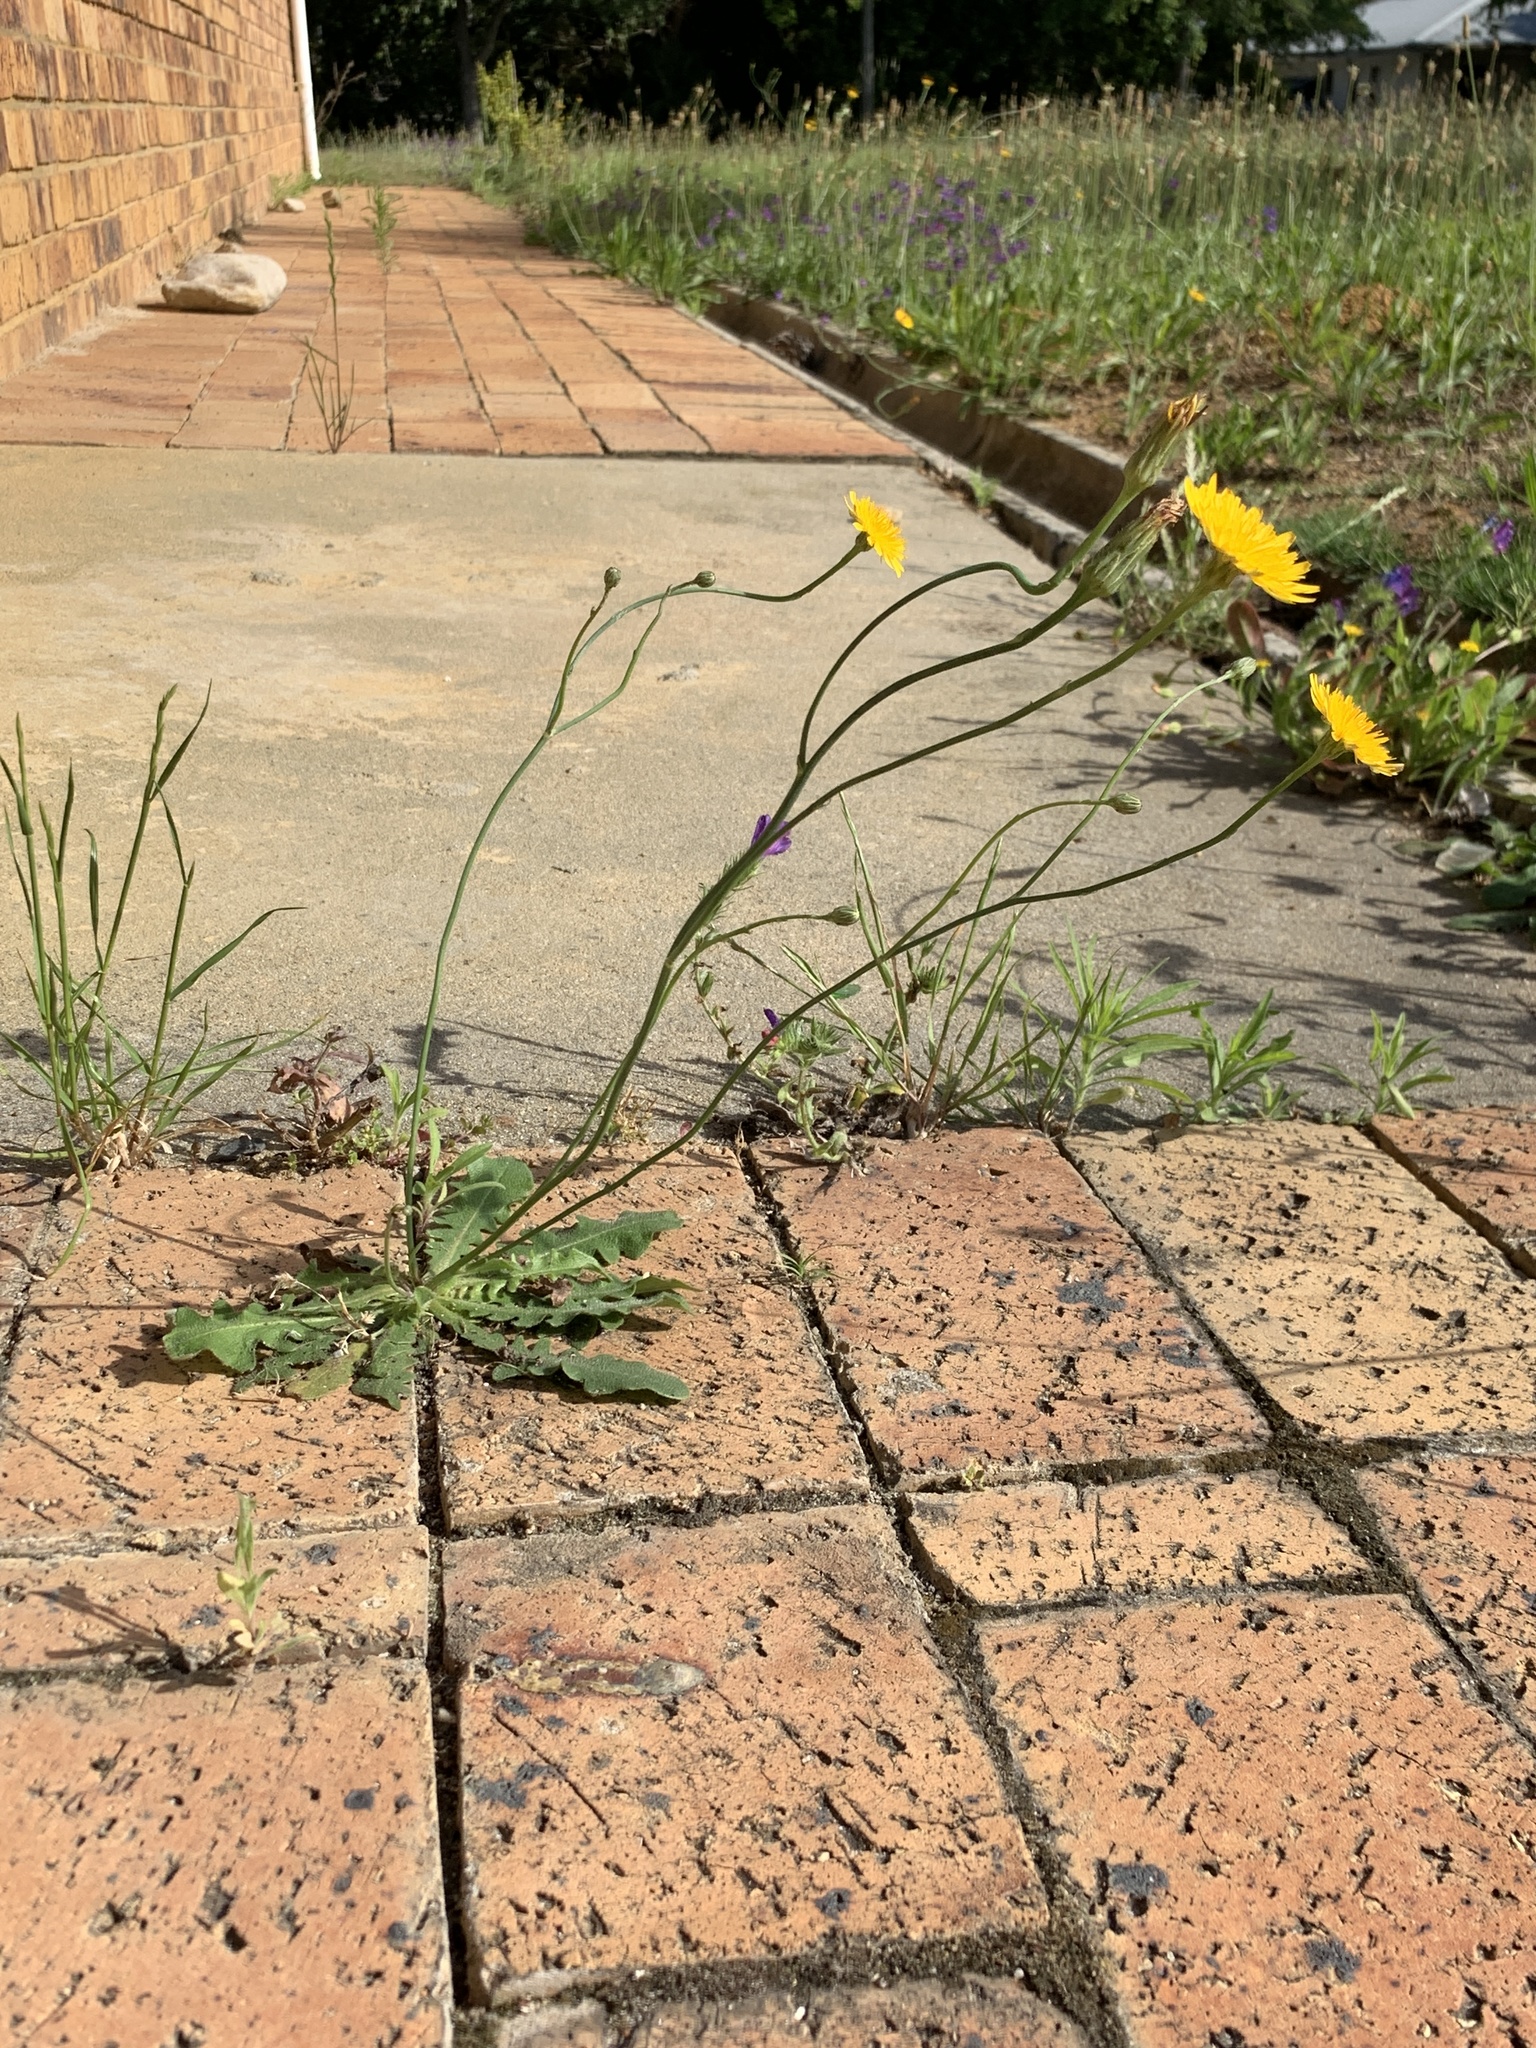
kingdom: Plantae
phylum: Tracheophyta
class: Magnoliopsida
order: Asterales
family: Asteraceae
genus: Hypochaeris
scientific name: Hypochaeris radicata
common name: Flatweed
